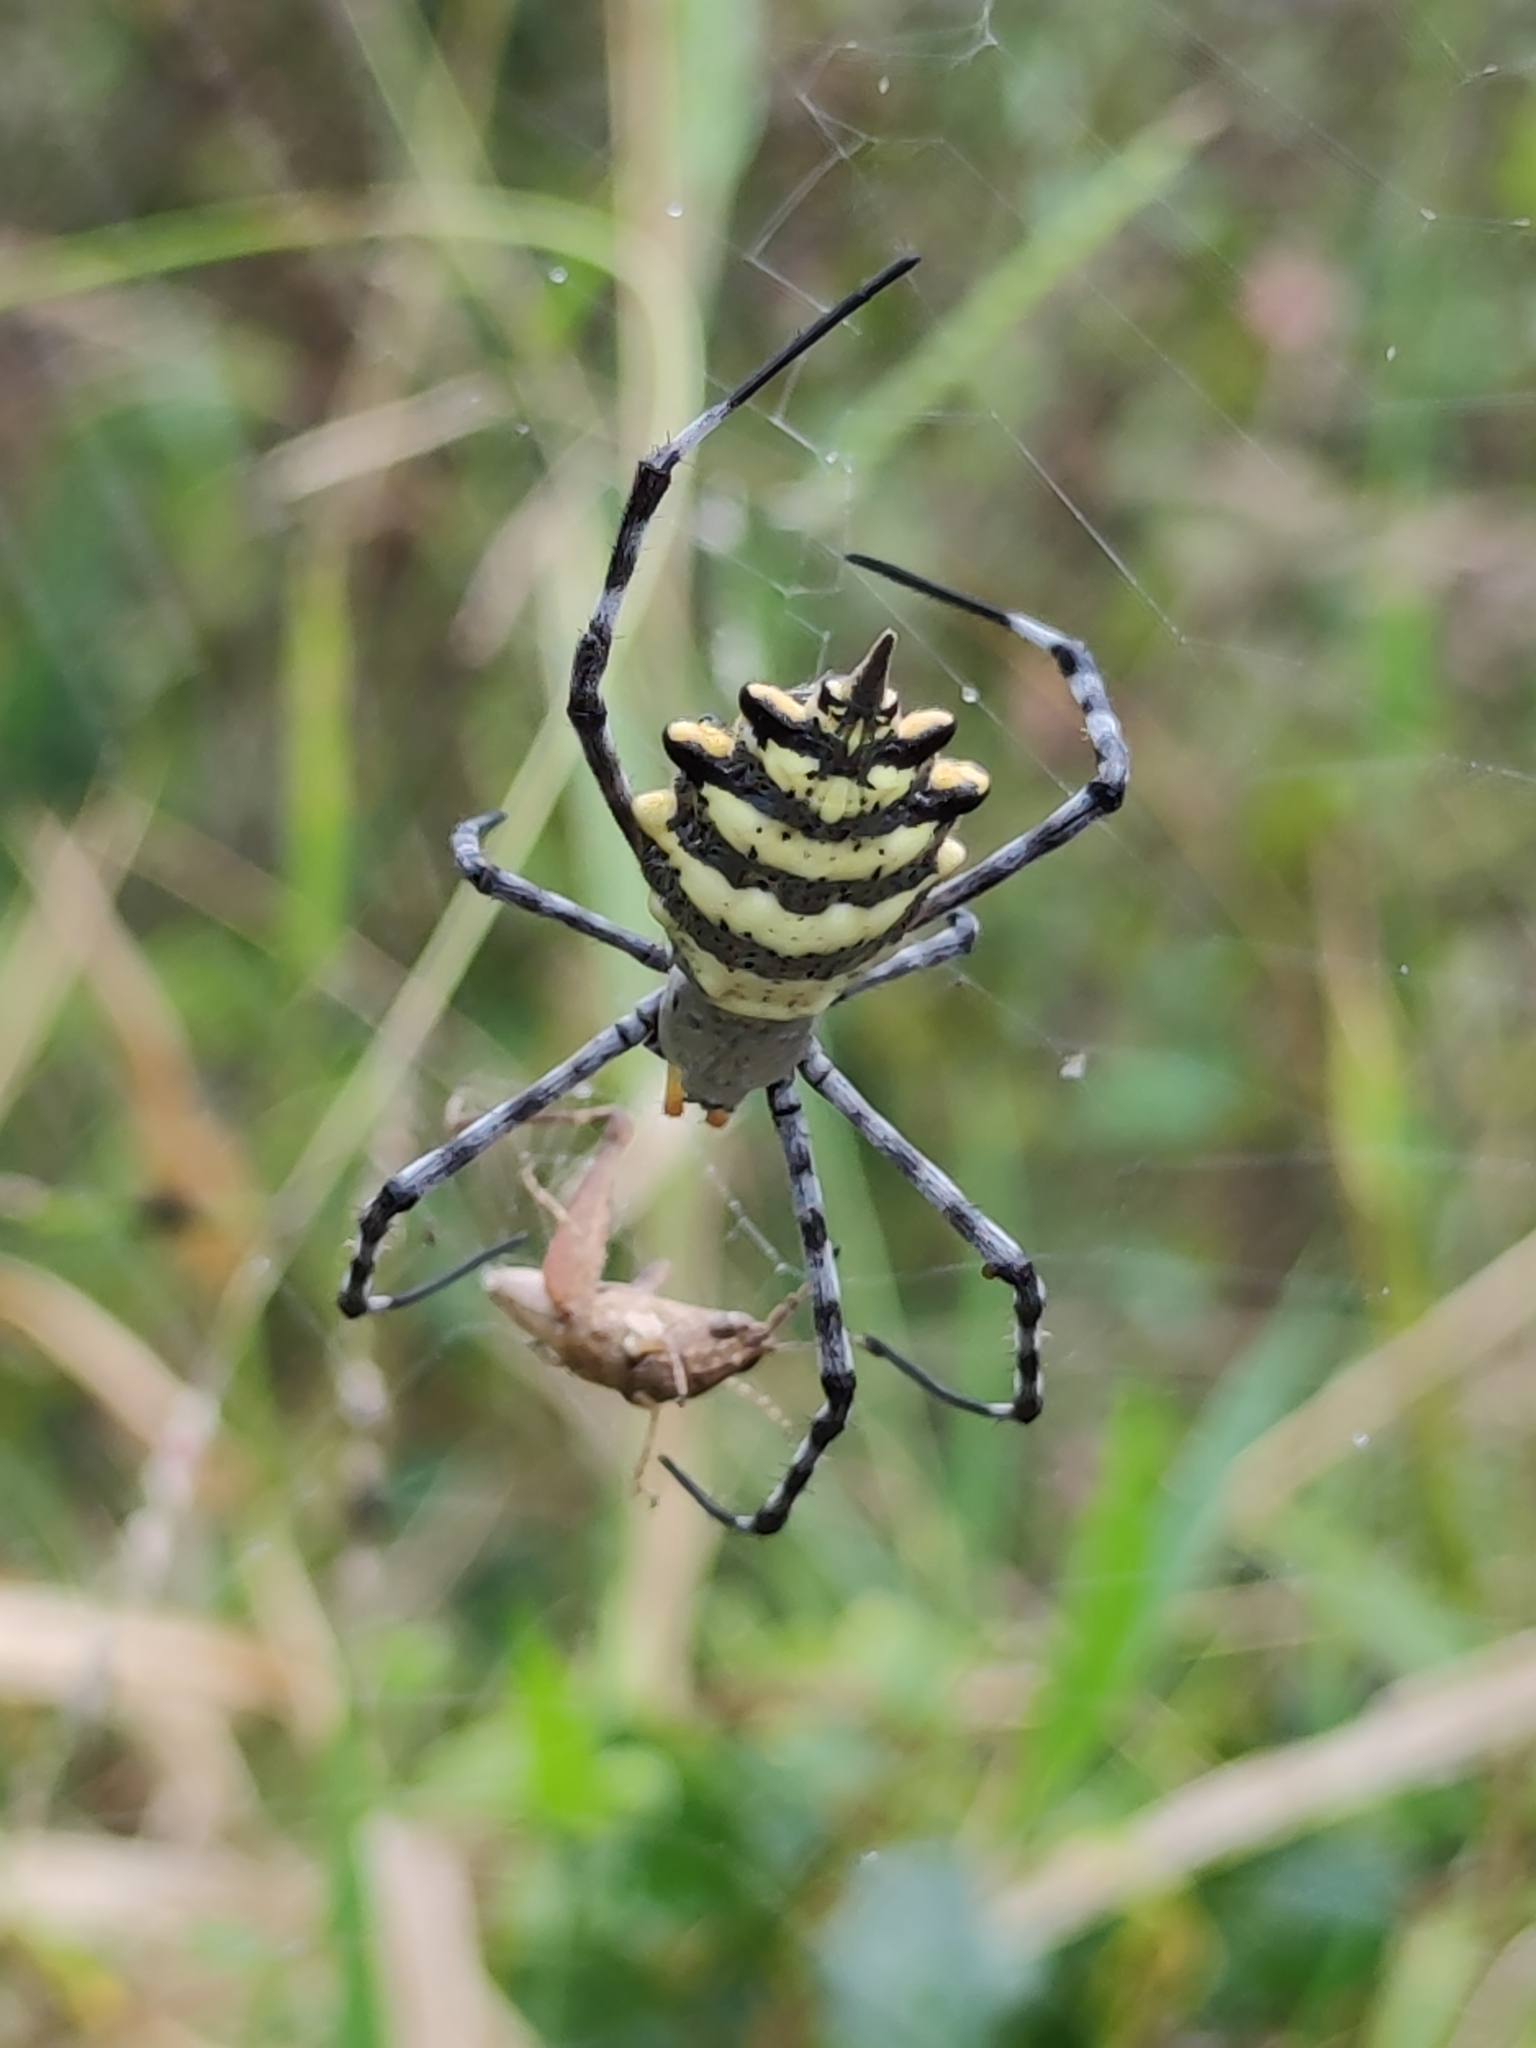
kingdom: Animalia
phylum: Arthropoda
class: Arachnida
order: Araneae
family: Araneidae
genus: Argiope
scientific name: Argiope australis
